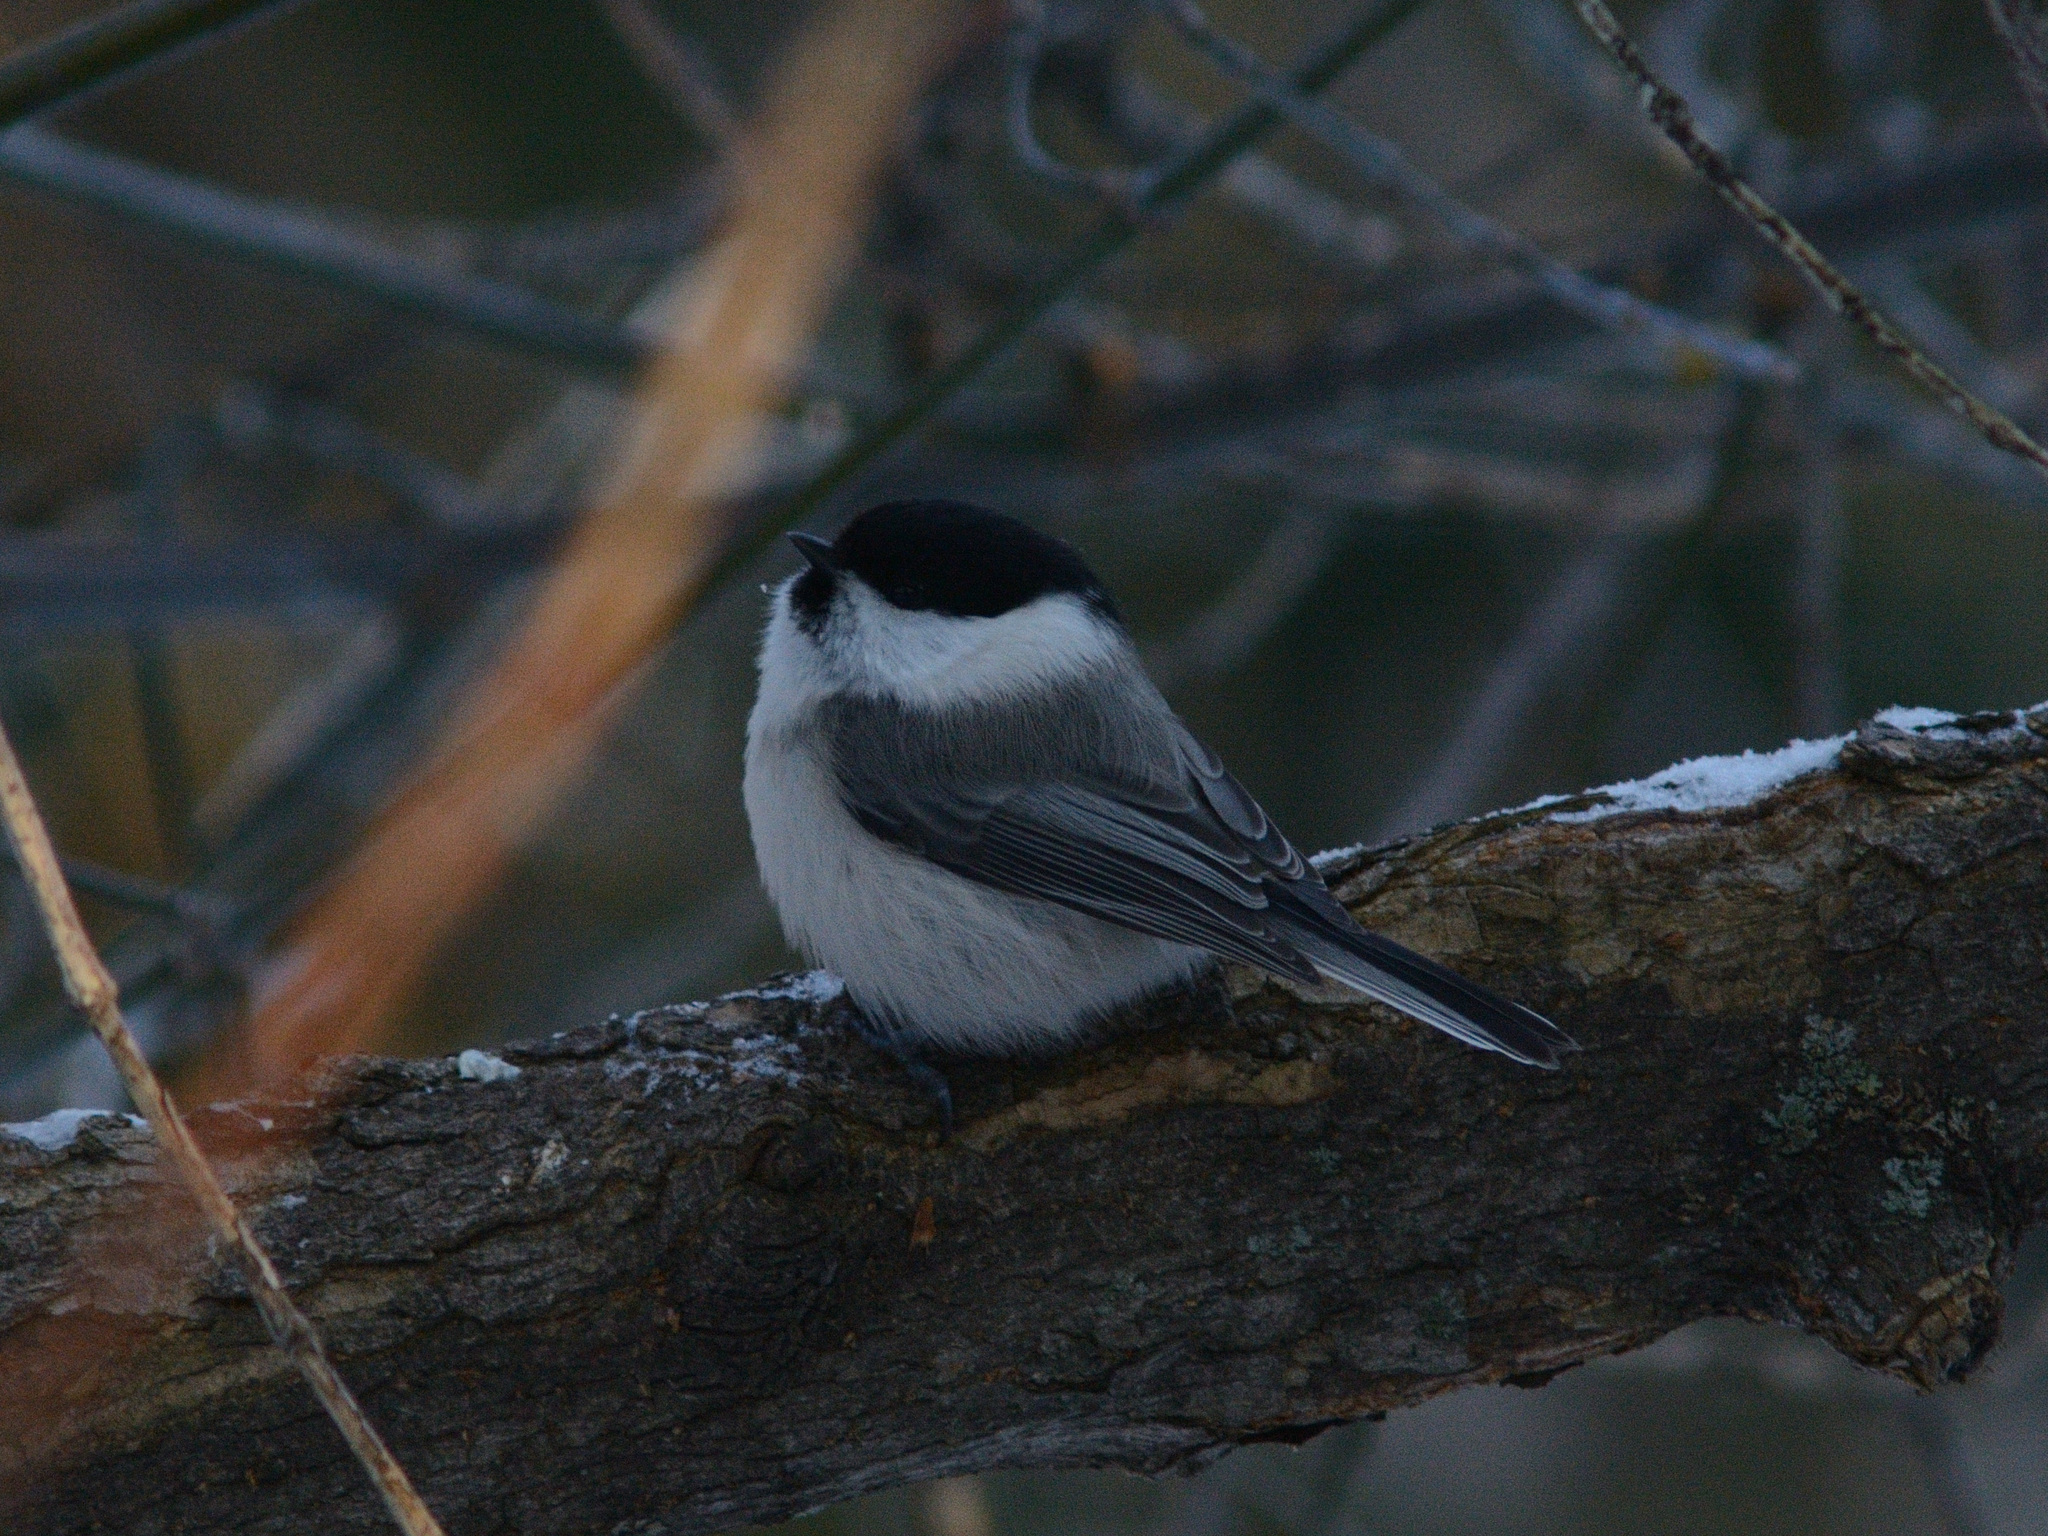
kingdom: Animalia
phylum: Chordata
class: Aves
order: Passeriformes
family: Paridae
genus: Poecile
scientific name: Poecile montanus
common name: Willow tit
